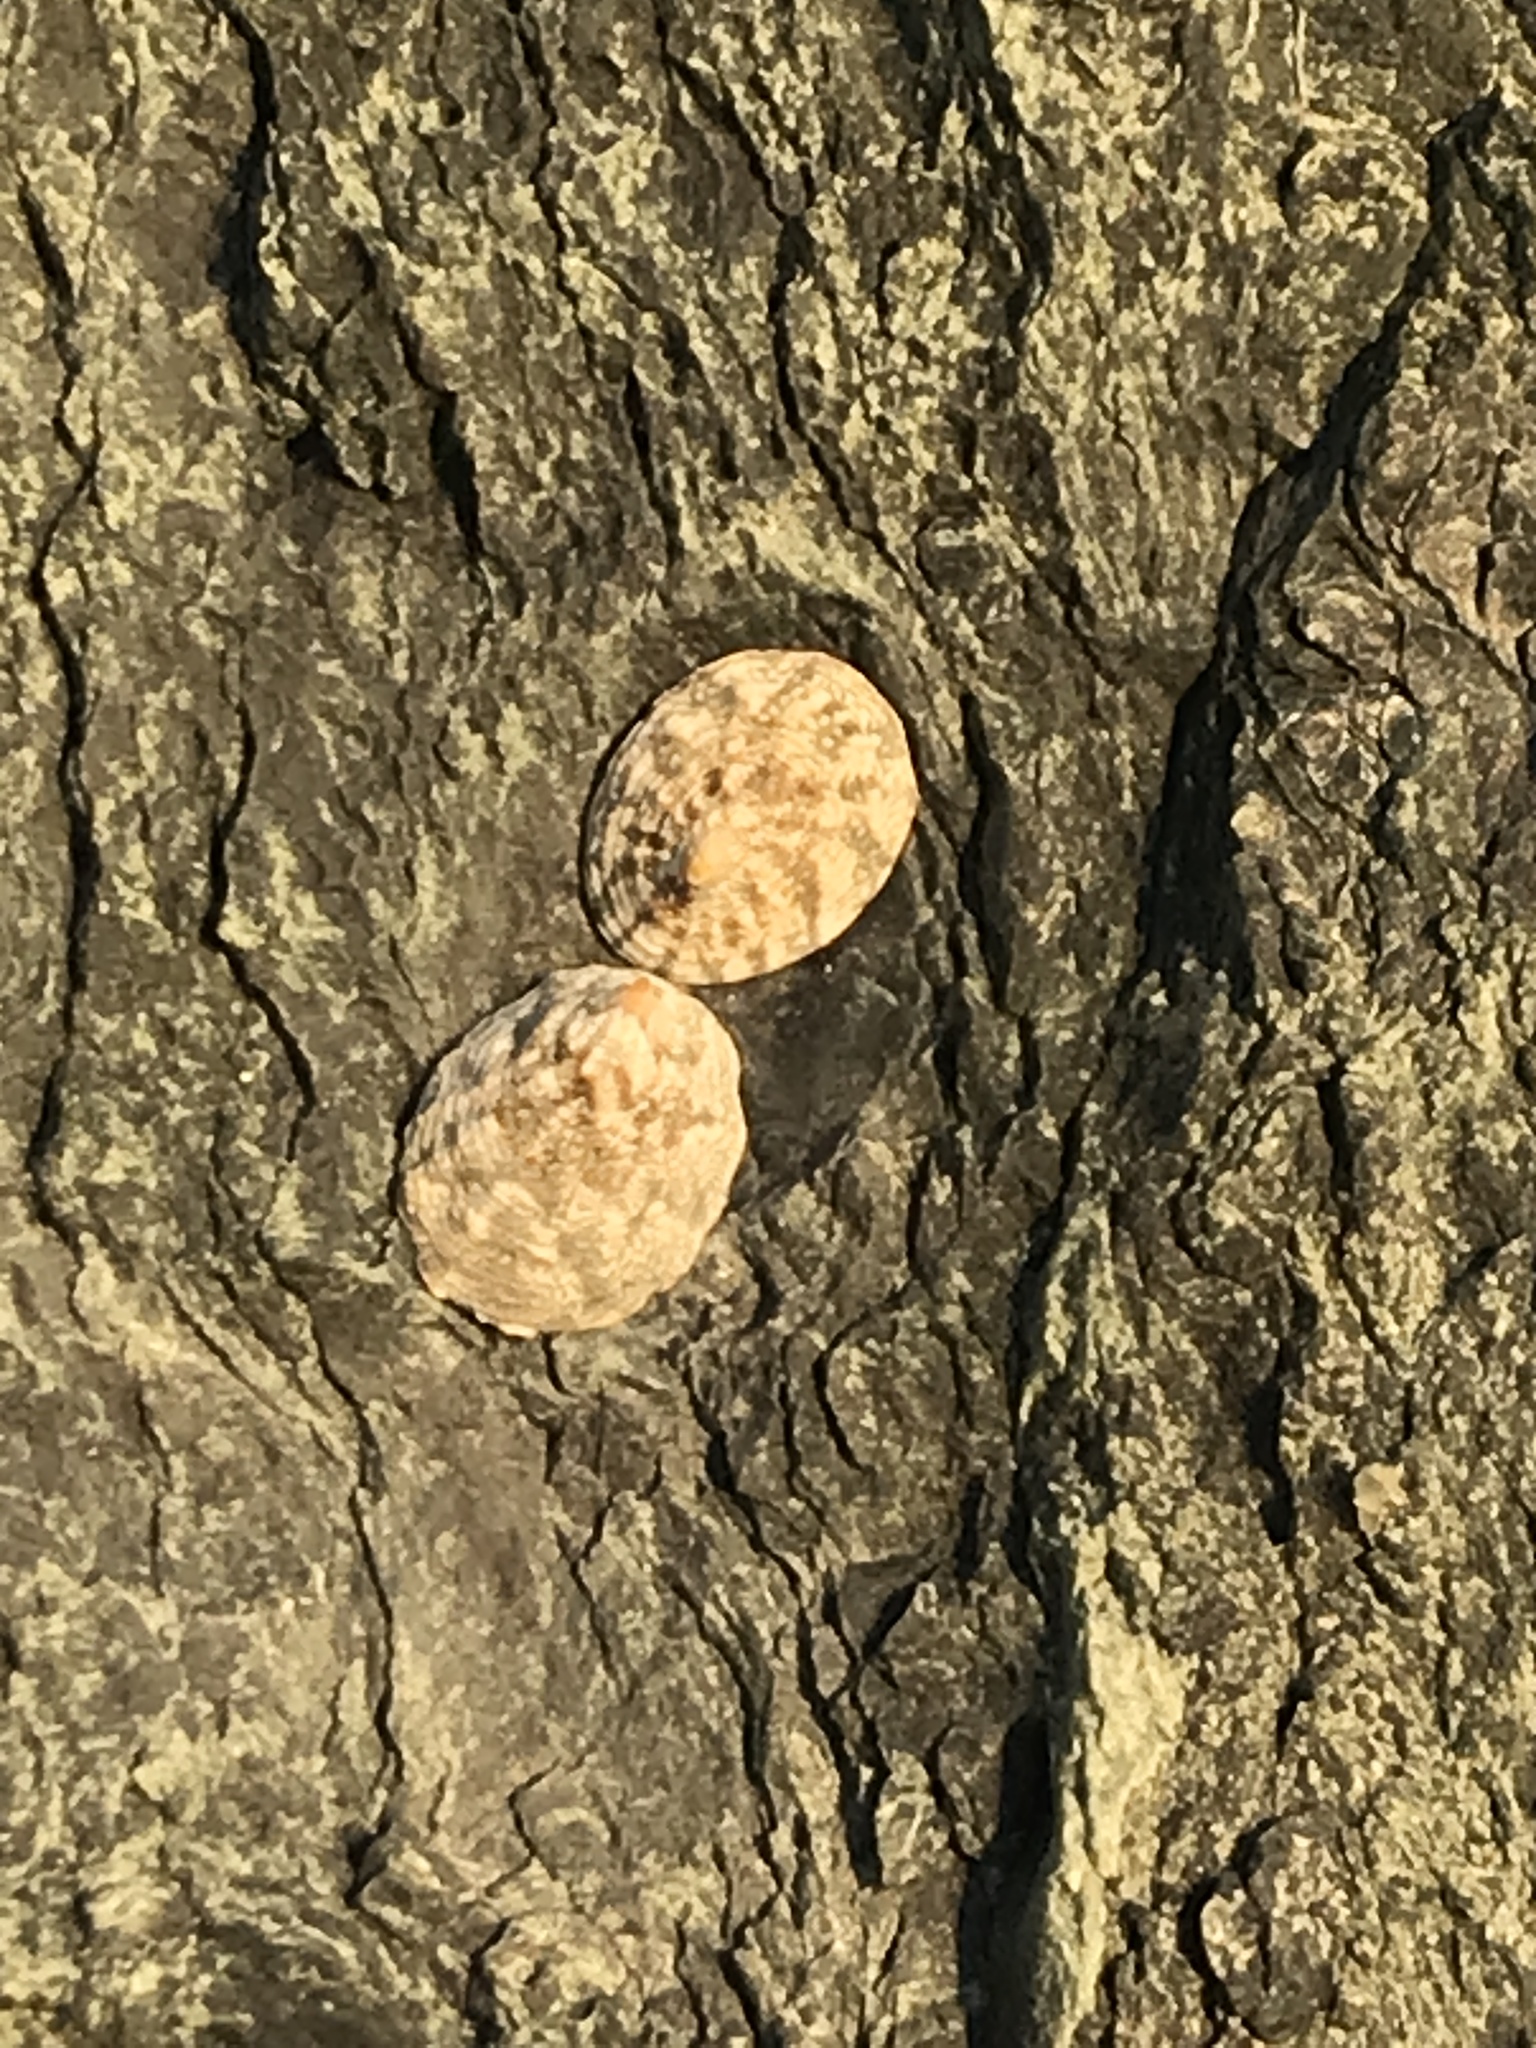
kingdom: Animalia
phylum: Mollusca
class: Gastropoda
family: Lottiidae
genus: Lottia
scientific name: Lottia digitalis
